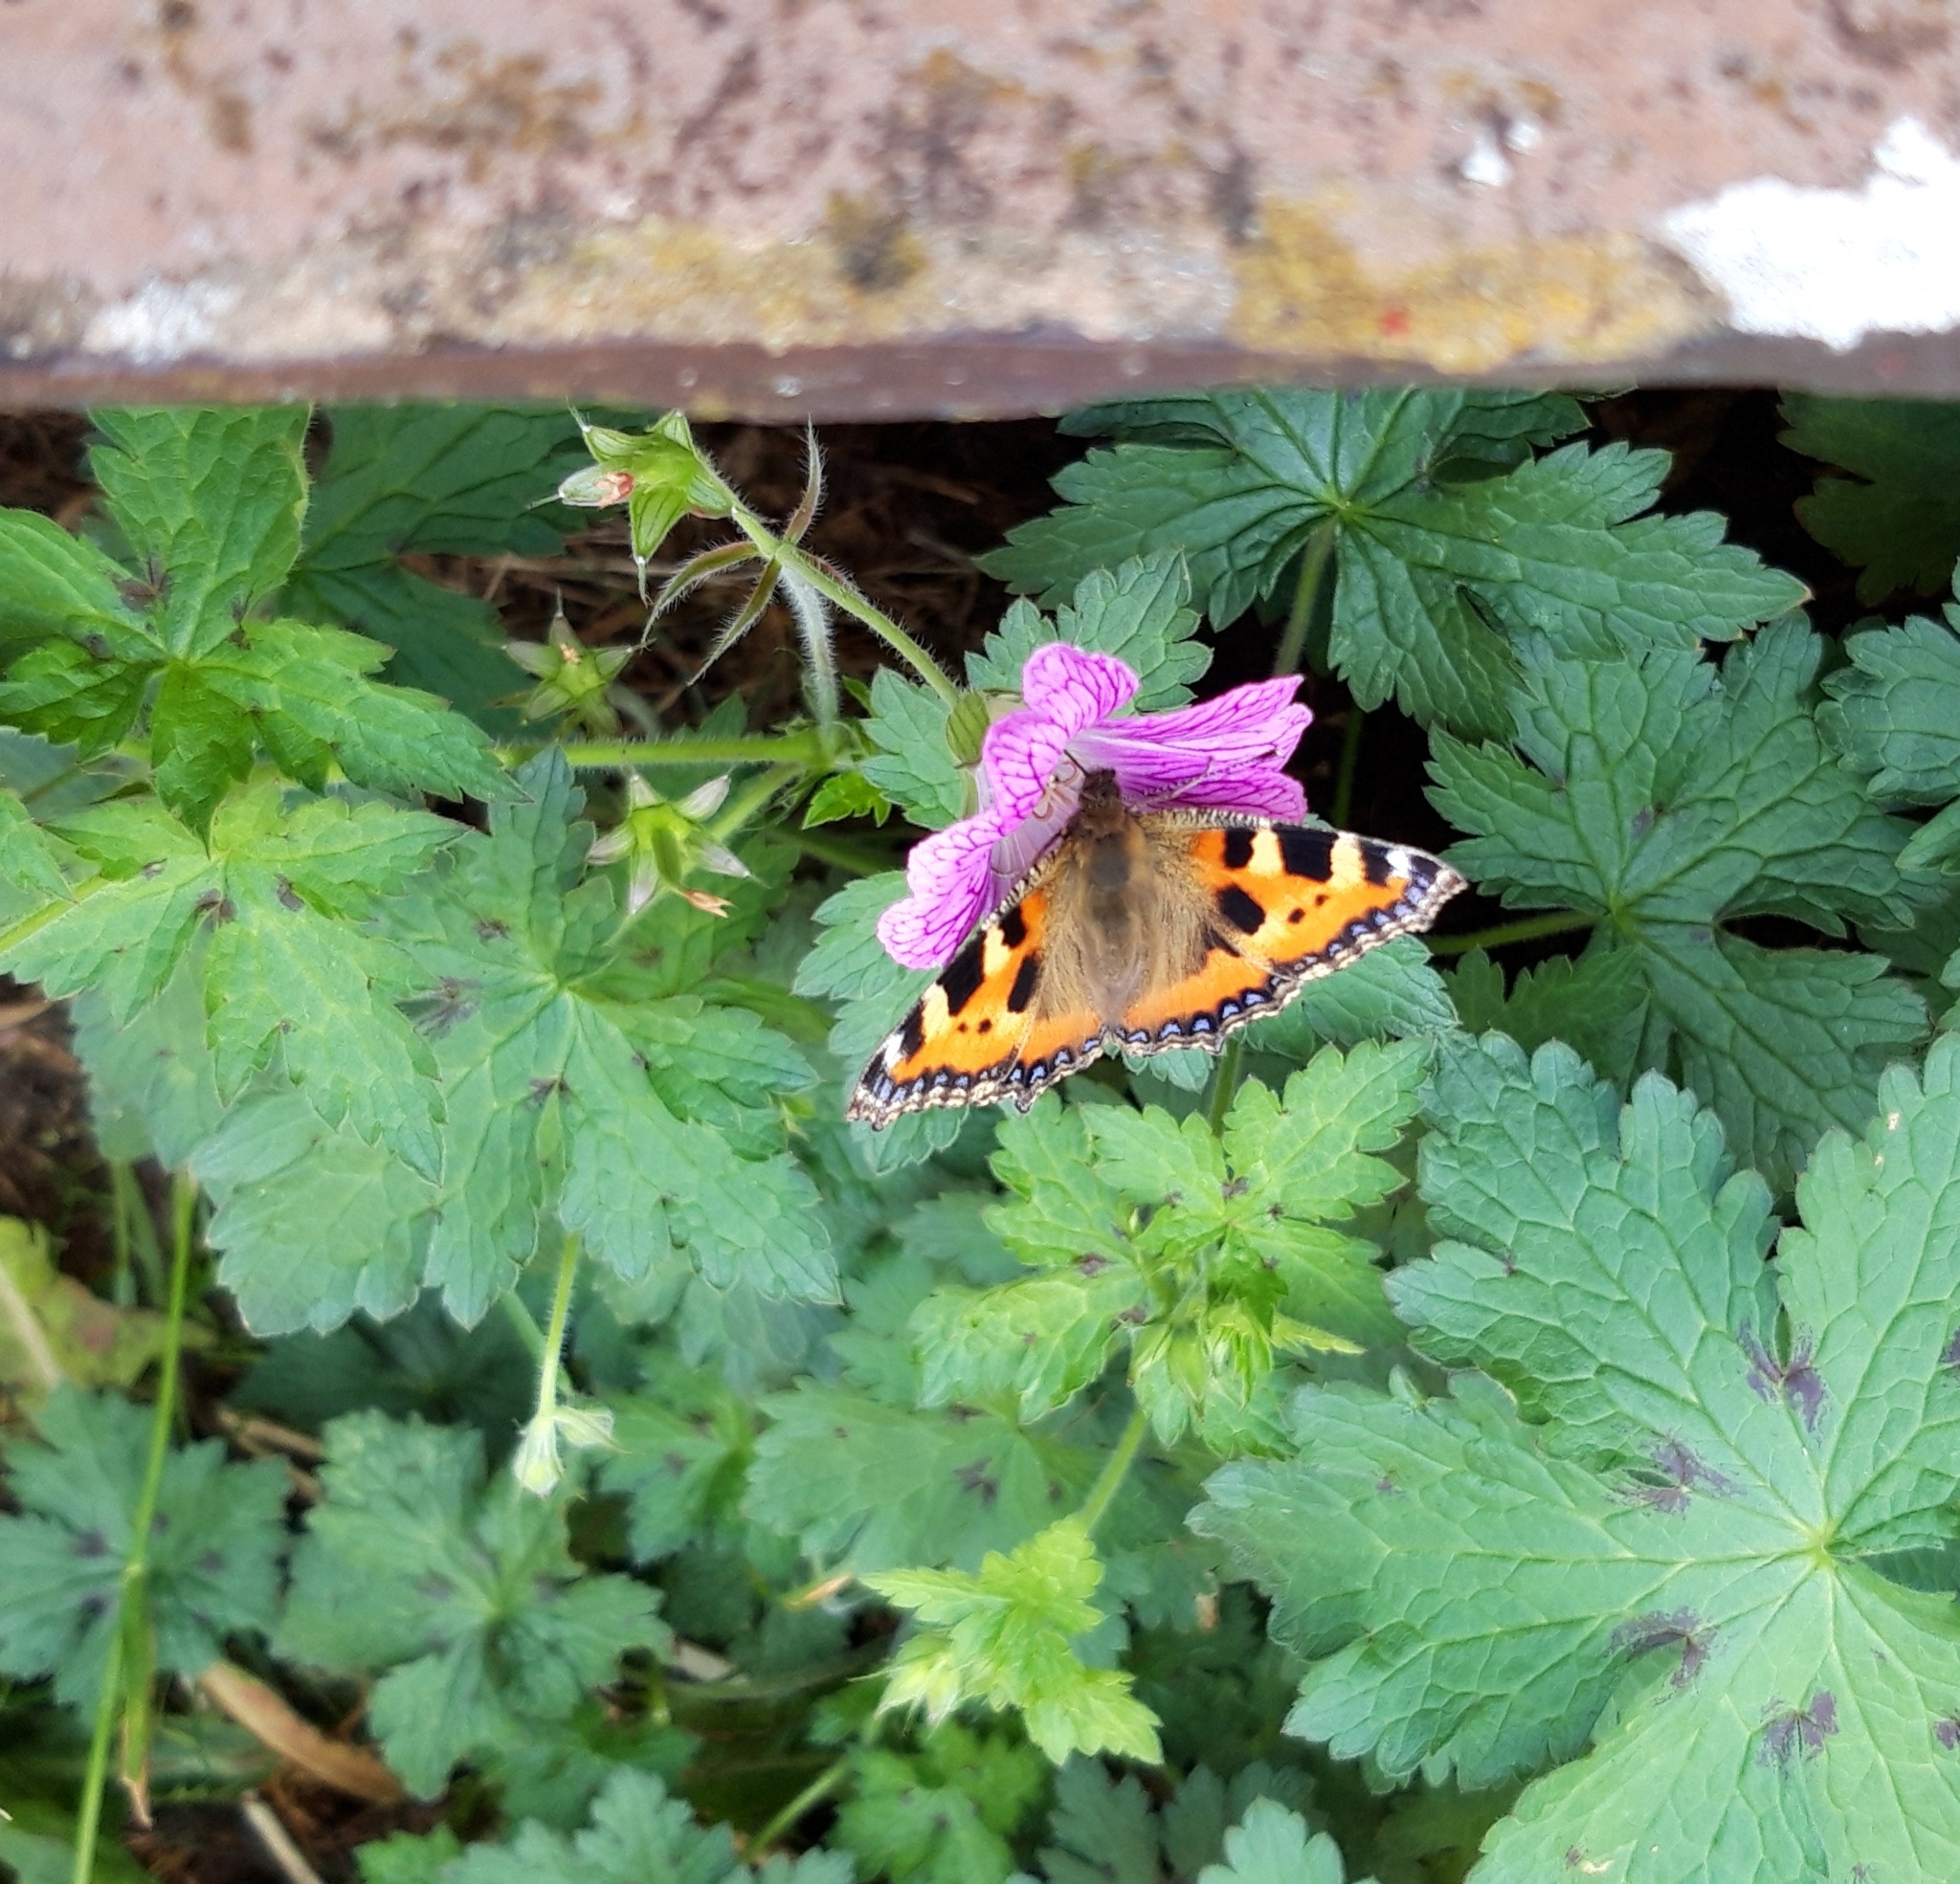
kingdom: Animalia
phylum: Arthropoda
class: Insecta
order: Lepidoptera
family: Nymphalidae
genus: Aglais
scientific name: Aglais urticae
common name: Small tortoiseshell
